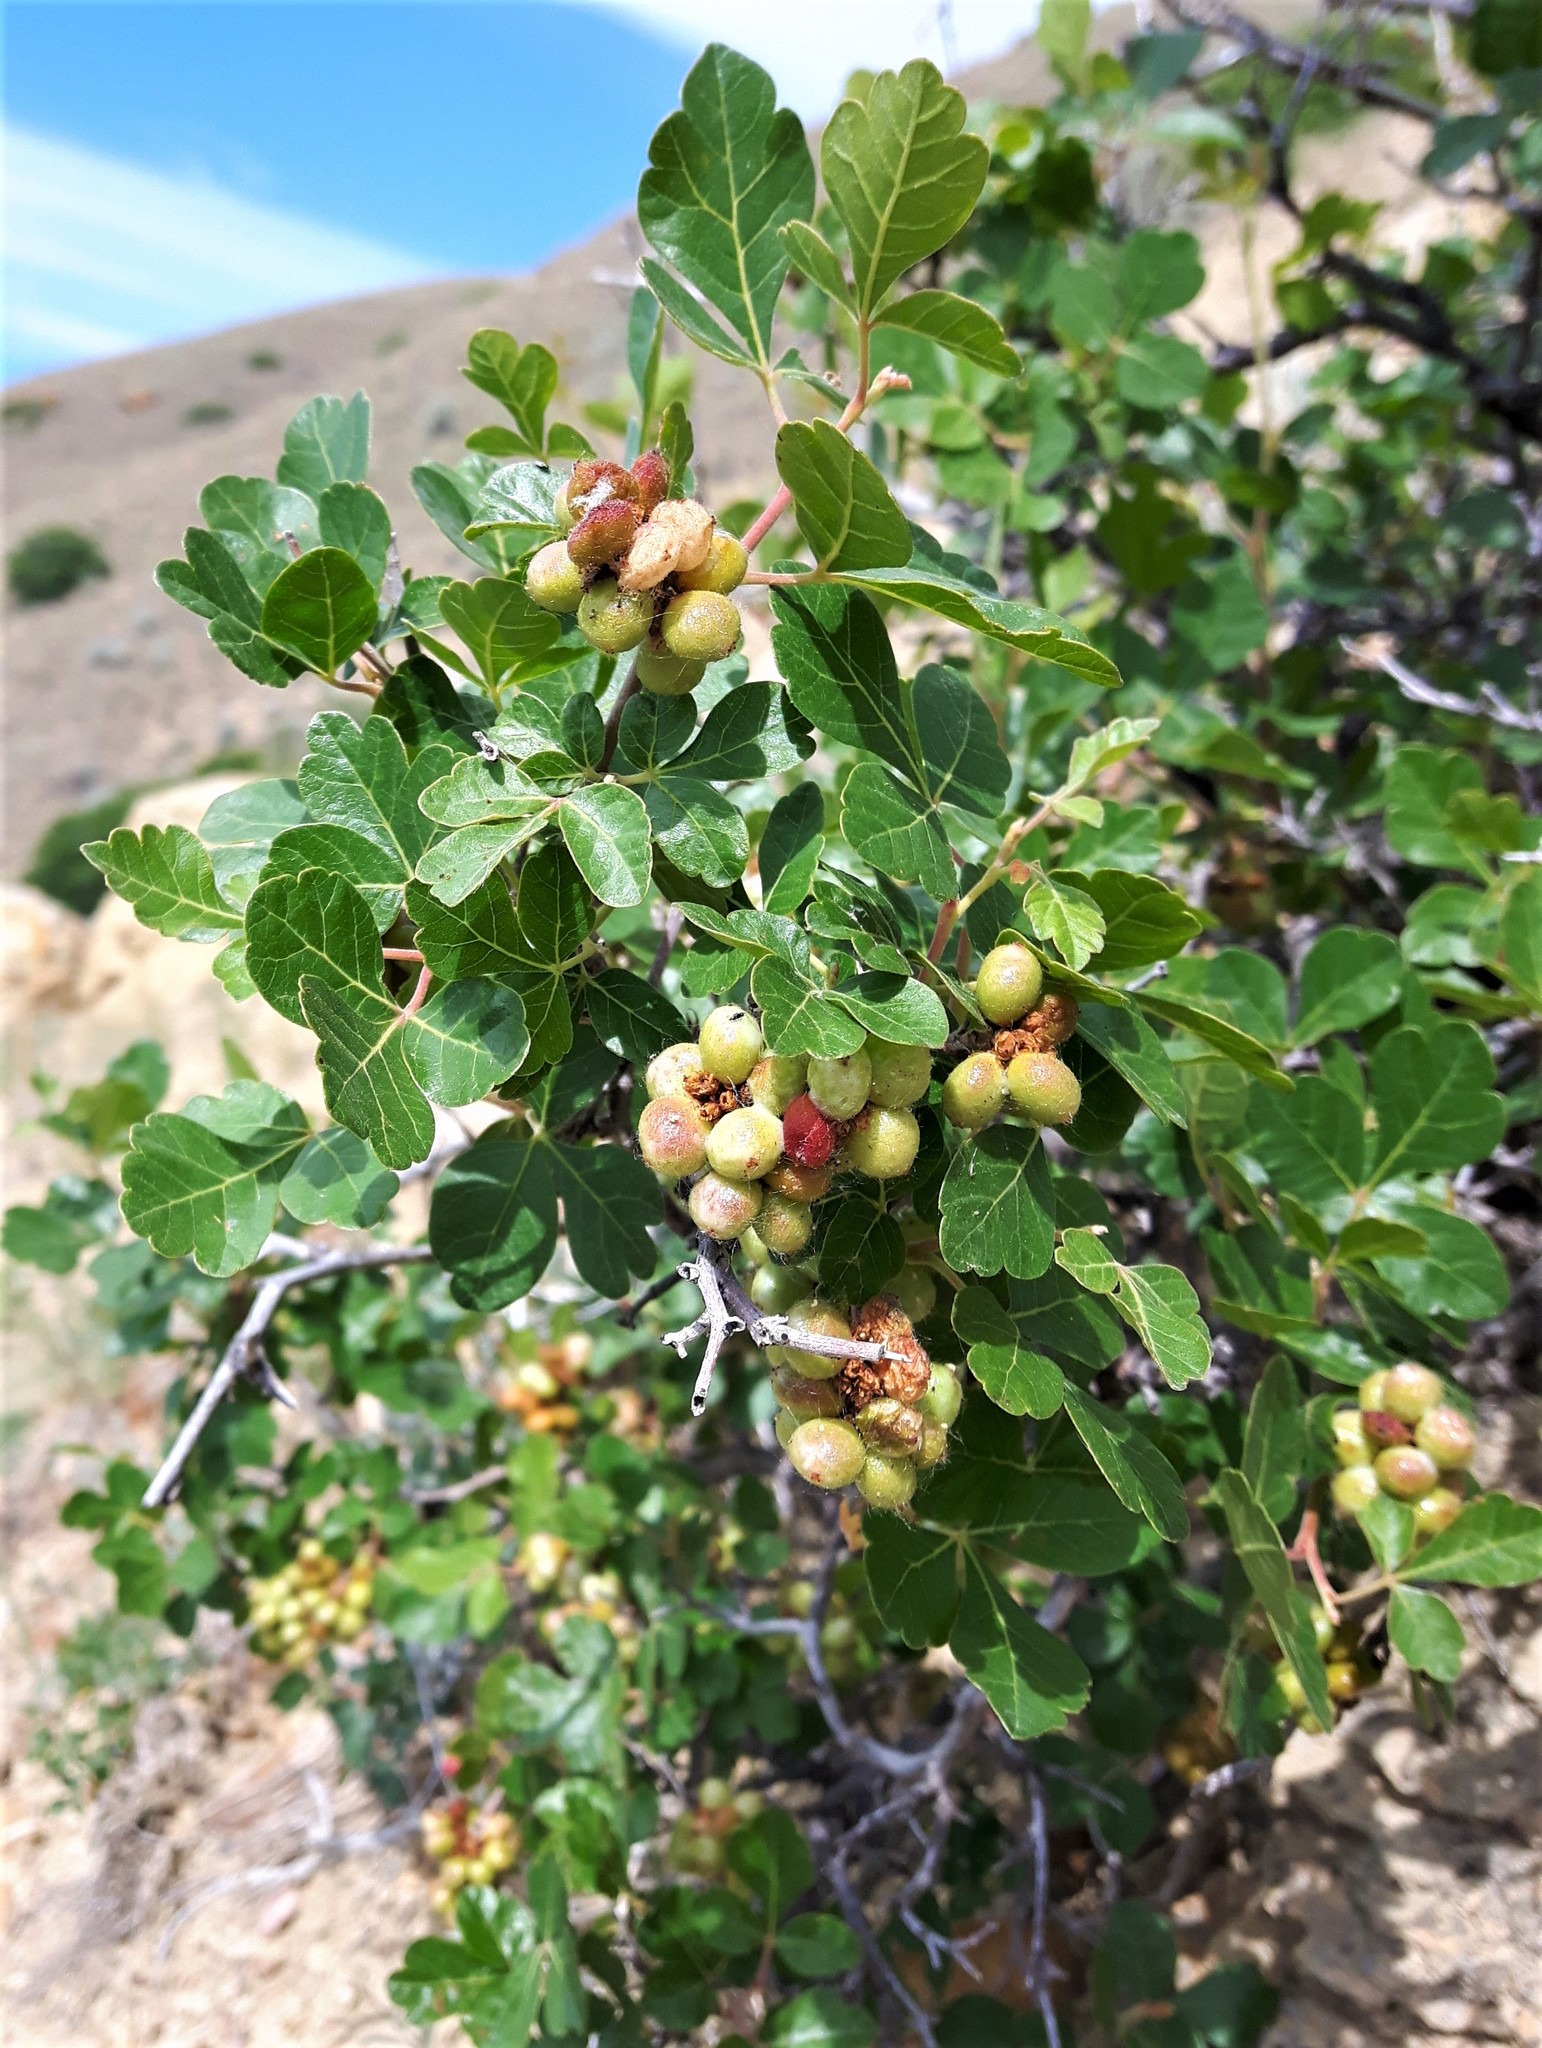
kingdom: Plantae
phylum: Tracheophyta
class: Magnoliopsida
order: Sapindales
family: Anacardiaceae
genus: Rhus
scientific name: Rhus aromatica
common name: Aromatic sumac
